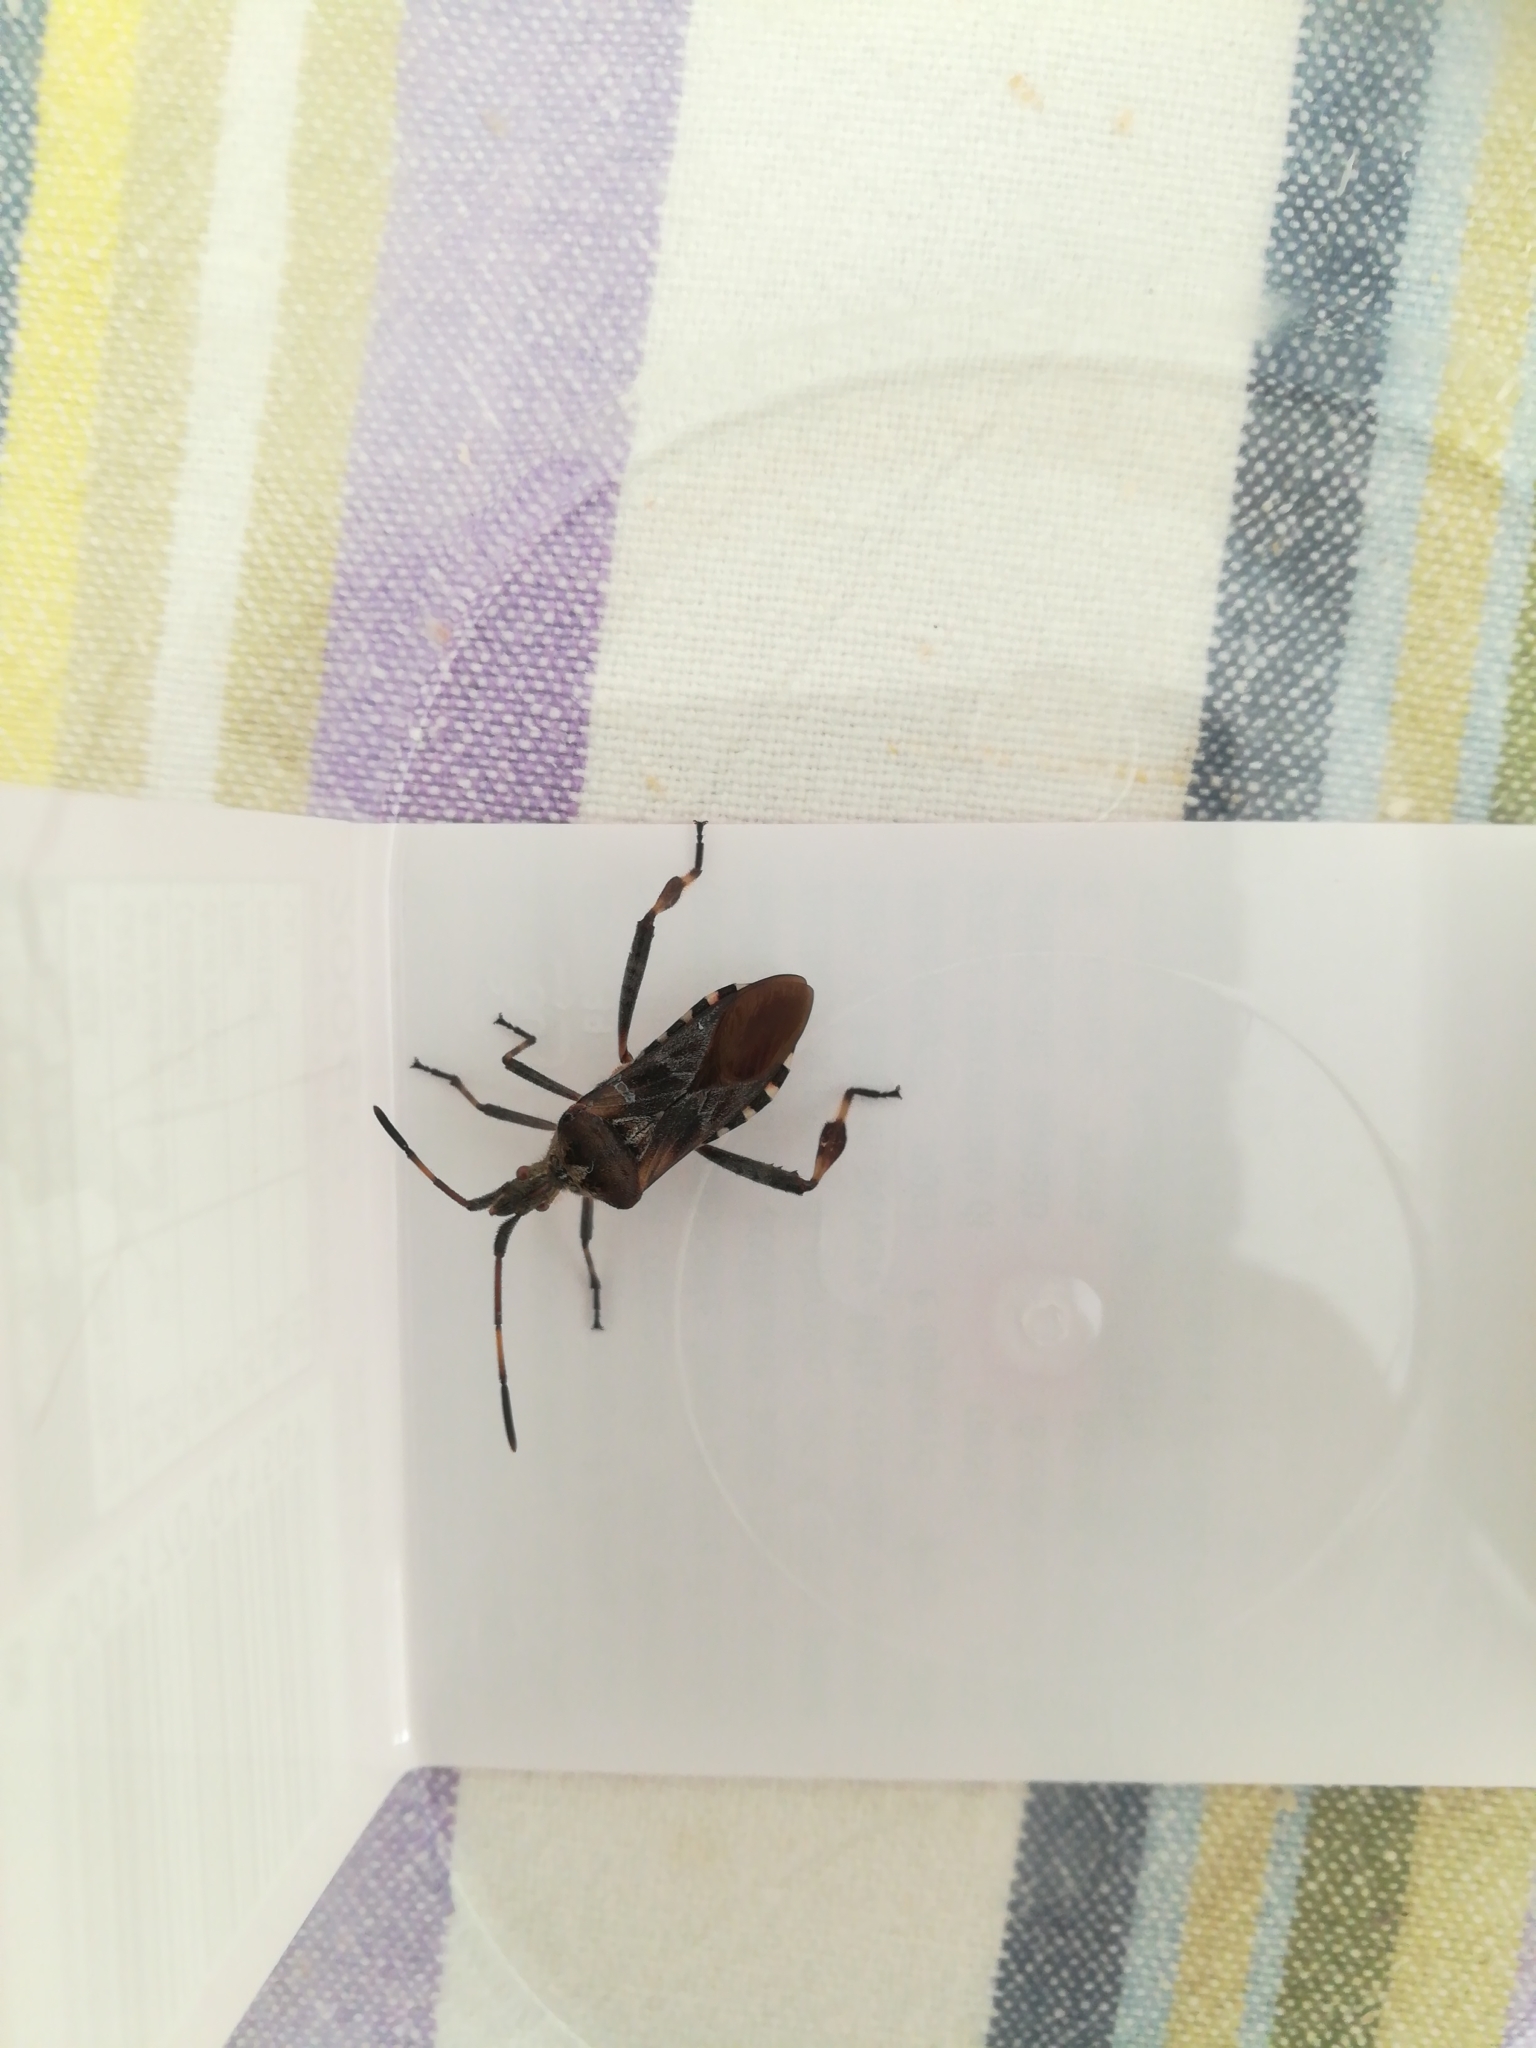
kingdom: Animalia
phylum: Arthropoda
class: Insecta
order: Hemiptera
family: Coreidae
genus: Leptoglossus
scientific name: Leptoglossus occidentalis
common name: Western conifer-seed bug
